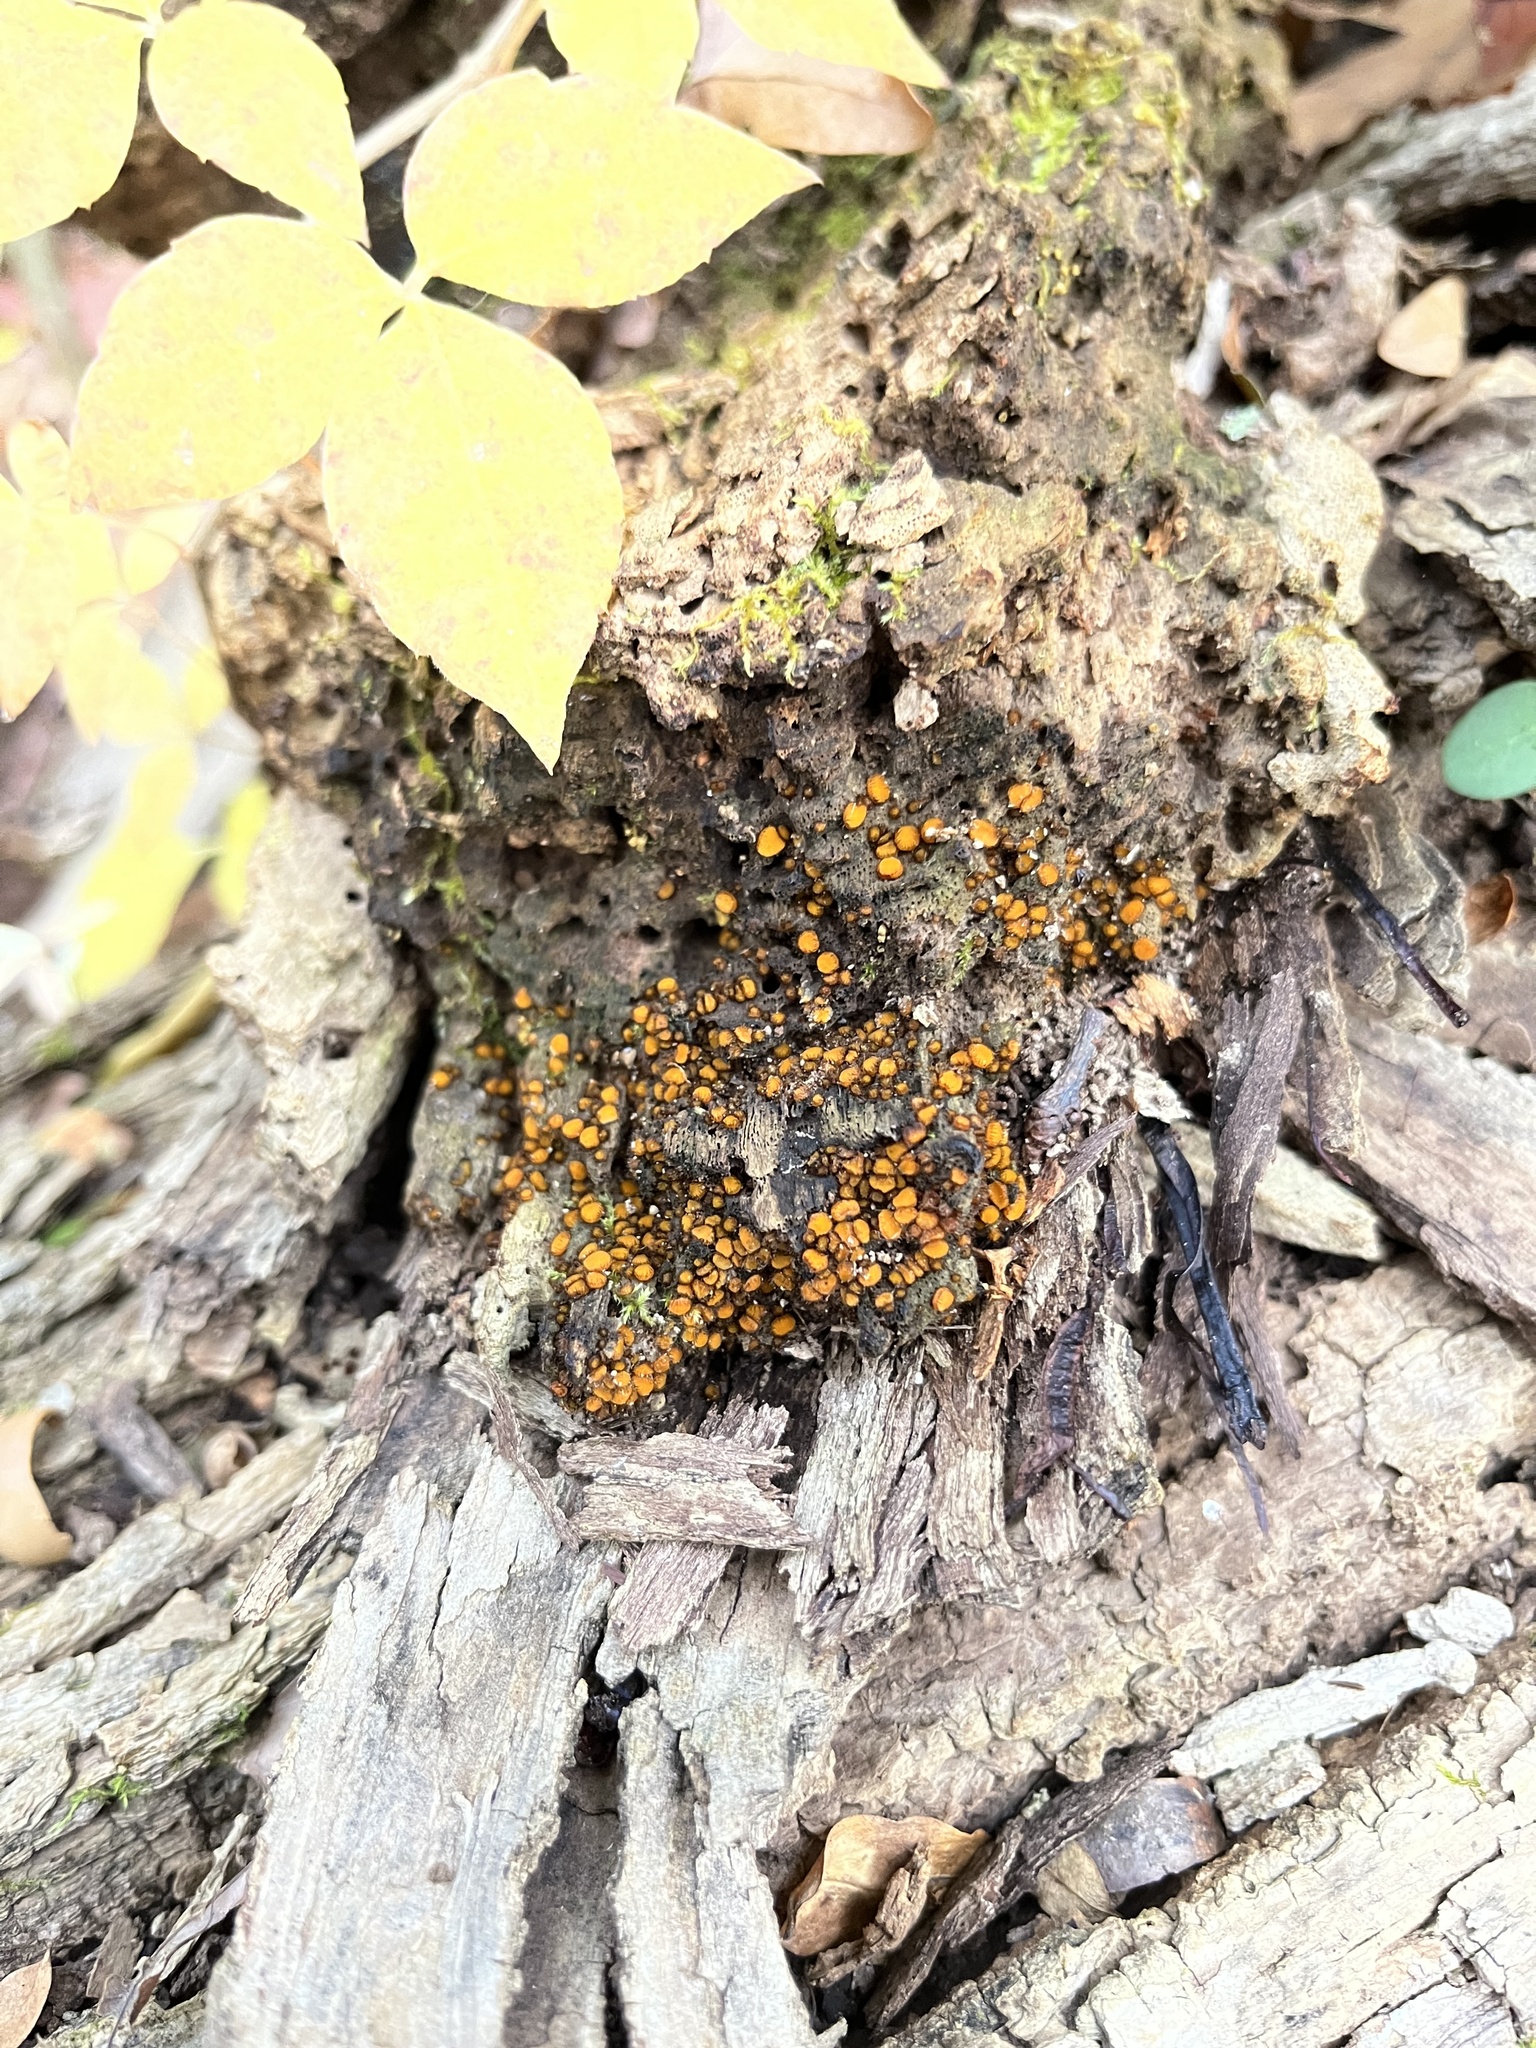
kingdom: Fungi
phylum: Ascomycota
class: Pezizomycetes
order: Pezizales
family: Pyronemataceae
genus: Scutellinia
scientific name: Scutellinia setosa
